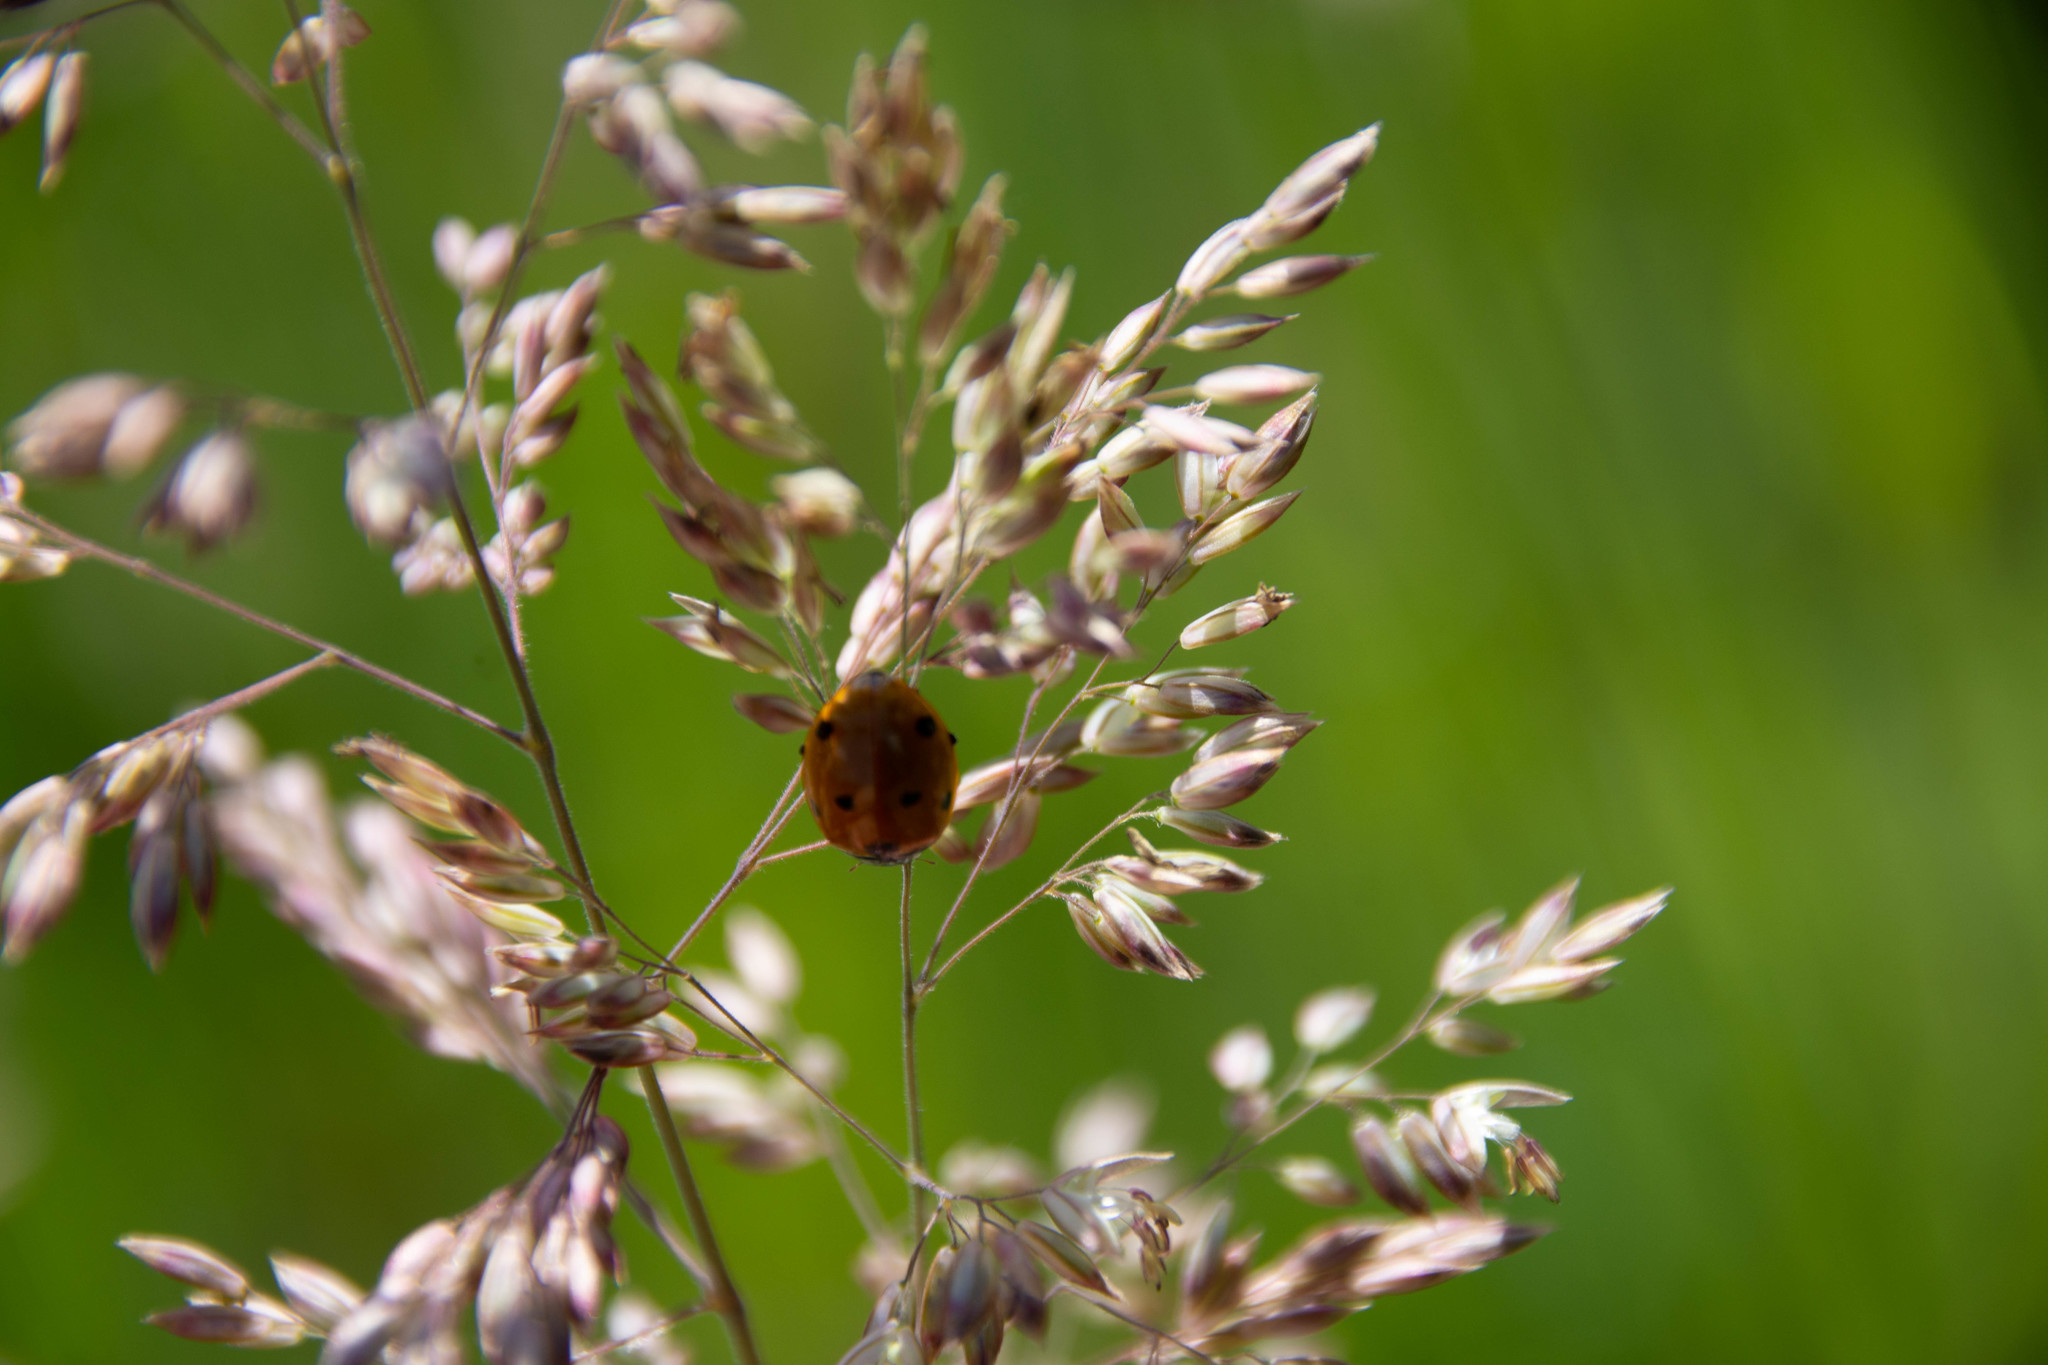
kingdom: Animalia
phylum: Arthropoda
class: Insecta
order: Coleoptera
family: Coccinellidae
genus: Coccinella
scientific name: Coccinella septempunctata
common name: Sevenspotted lady beetle
